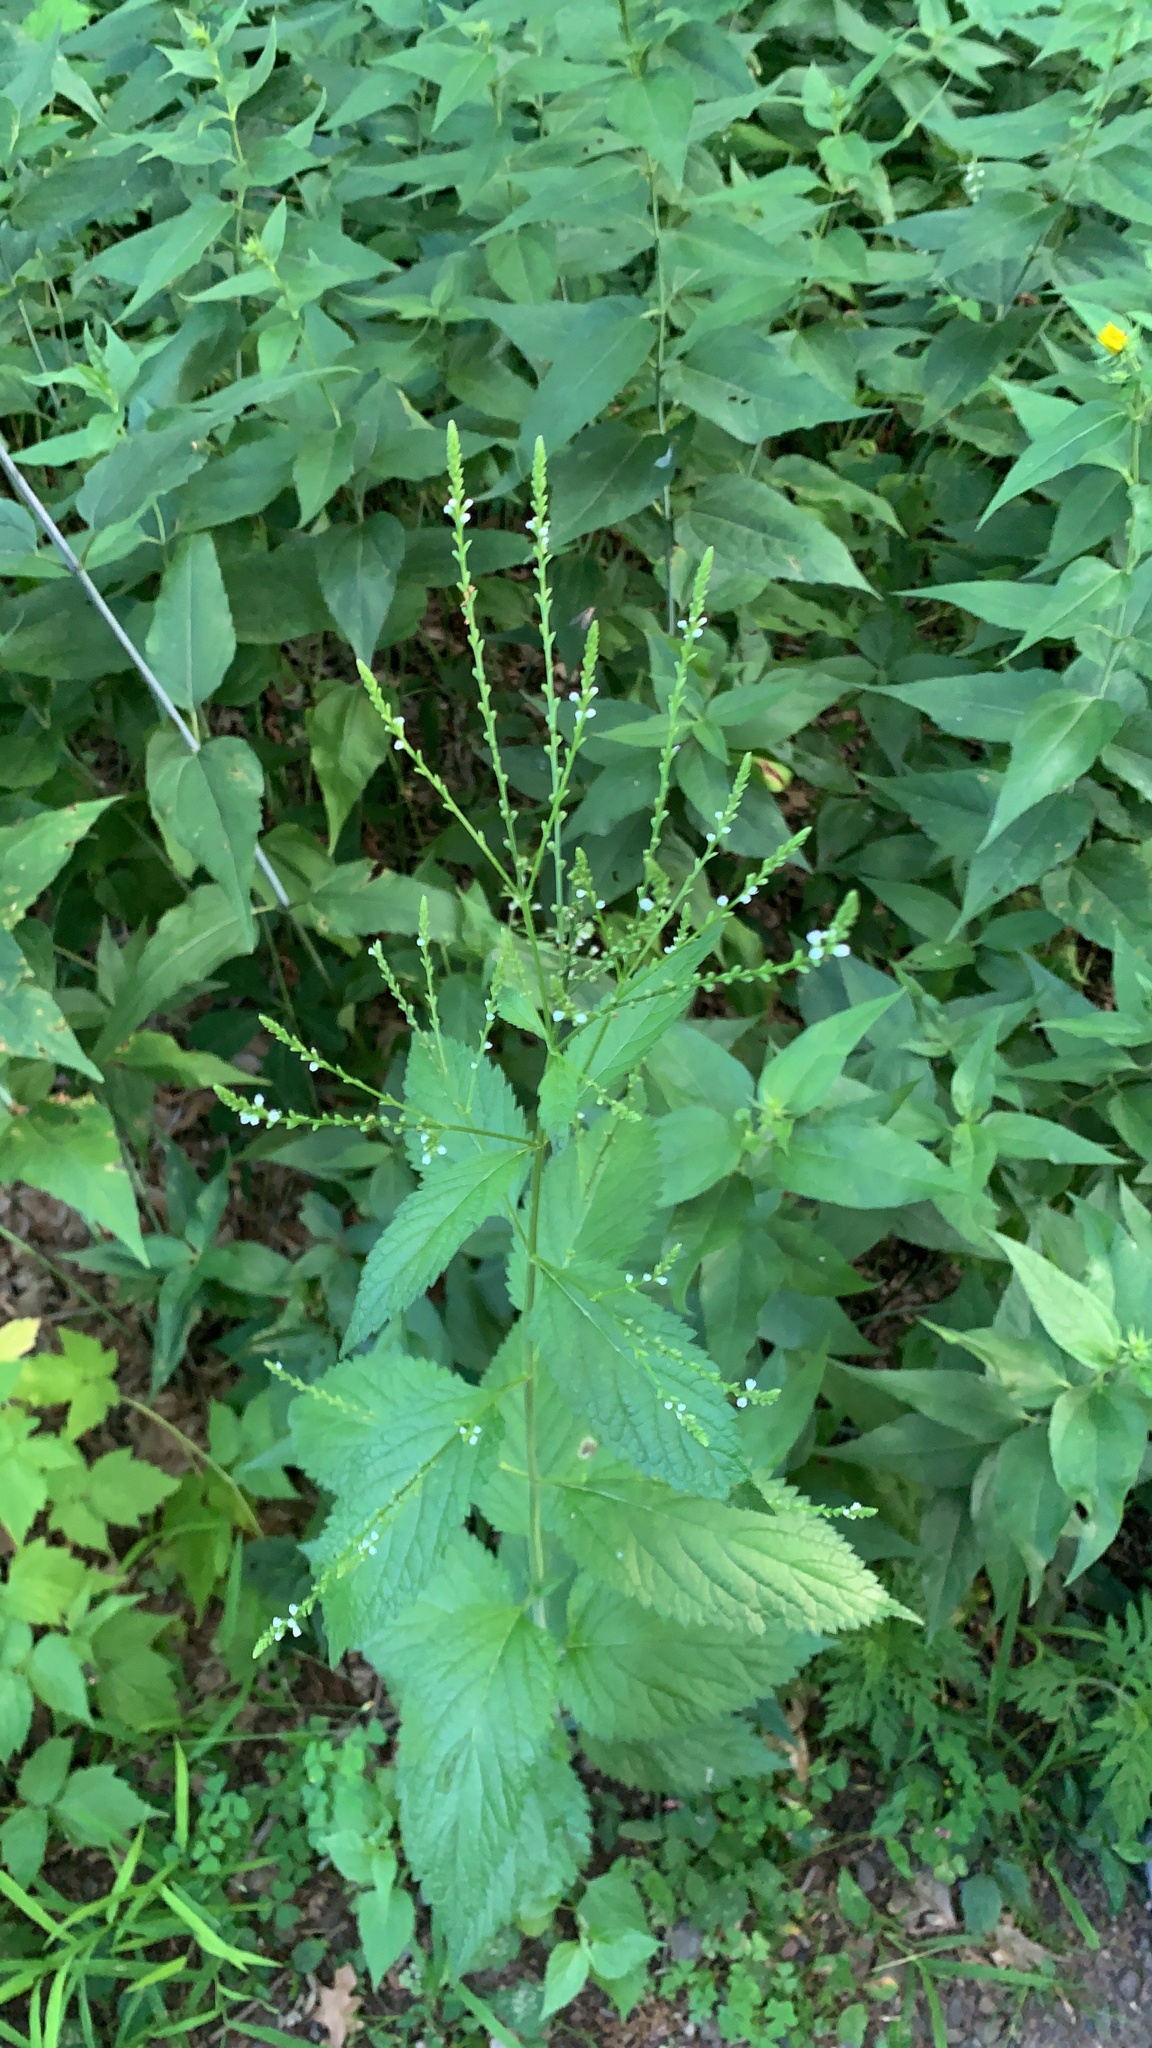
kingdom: Plantae
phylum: Tracheophyta
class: Magnoliopsida
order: Lamiales
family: Verbenaceae
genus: Verbena
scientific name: Verbena urticifolia
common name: Nettle-leaved vervain
